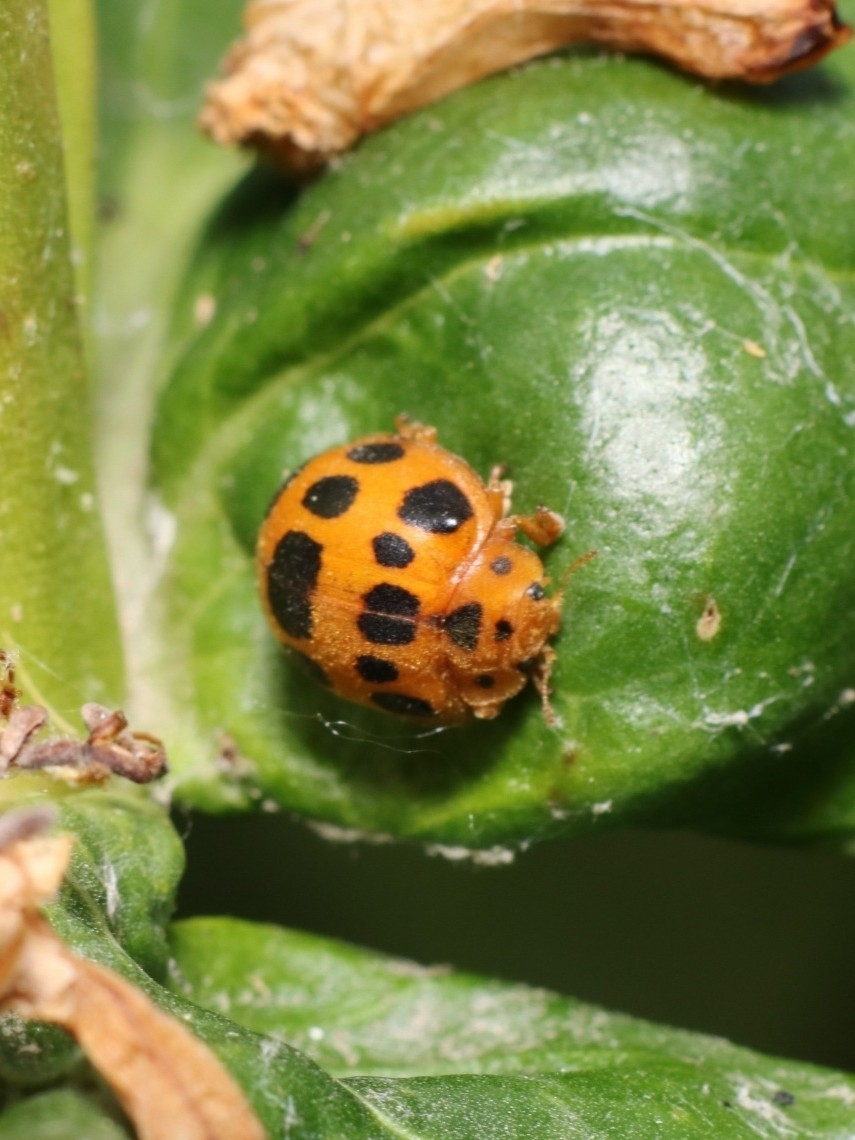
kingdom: Animalia
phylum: Arthropoda
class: Insecta
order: Coleoptera
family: Coccinellidae
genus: Epilachna
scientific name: Epilachna borealis
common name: Squash beetle
